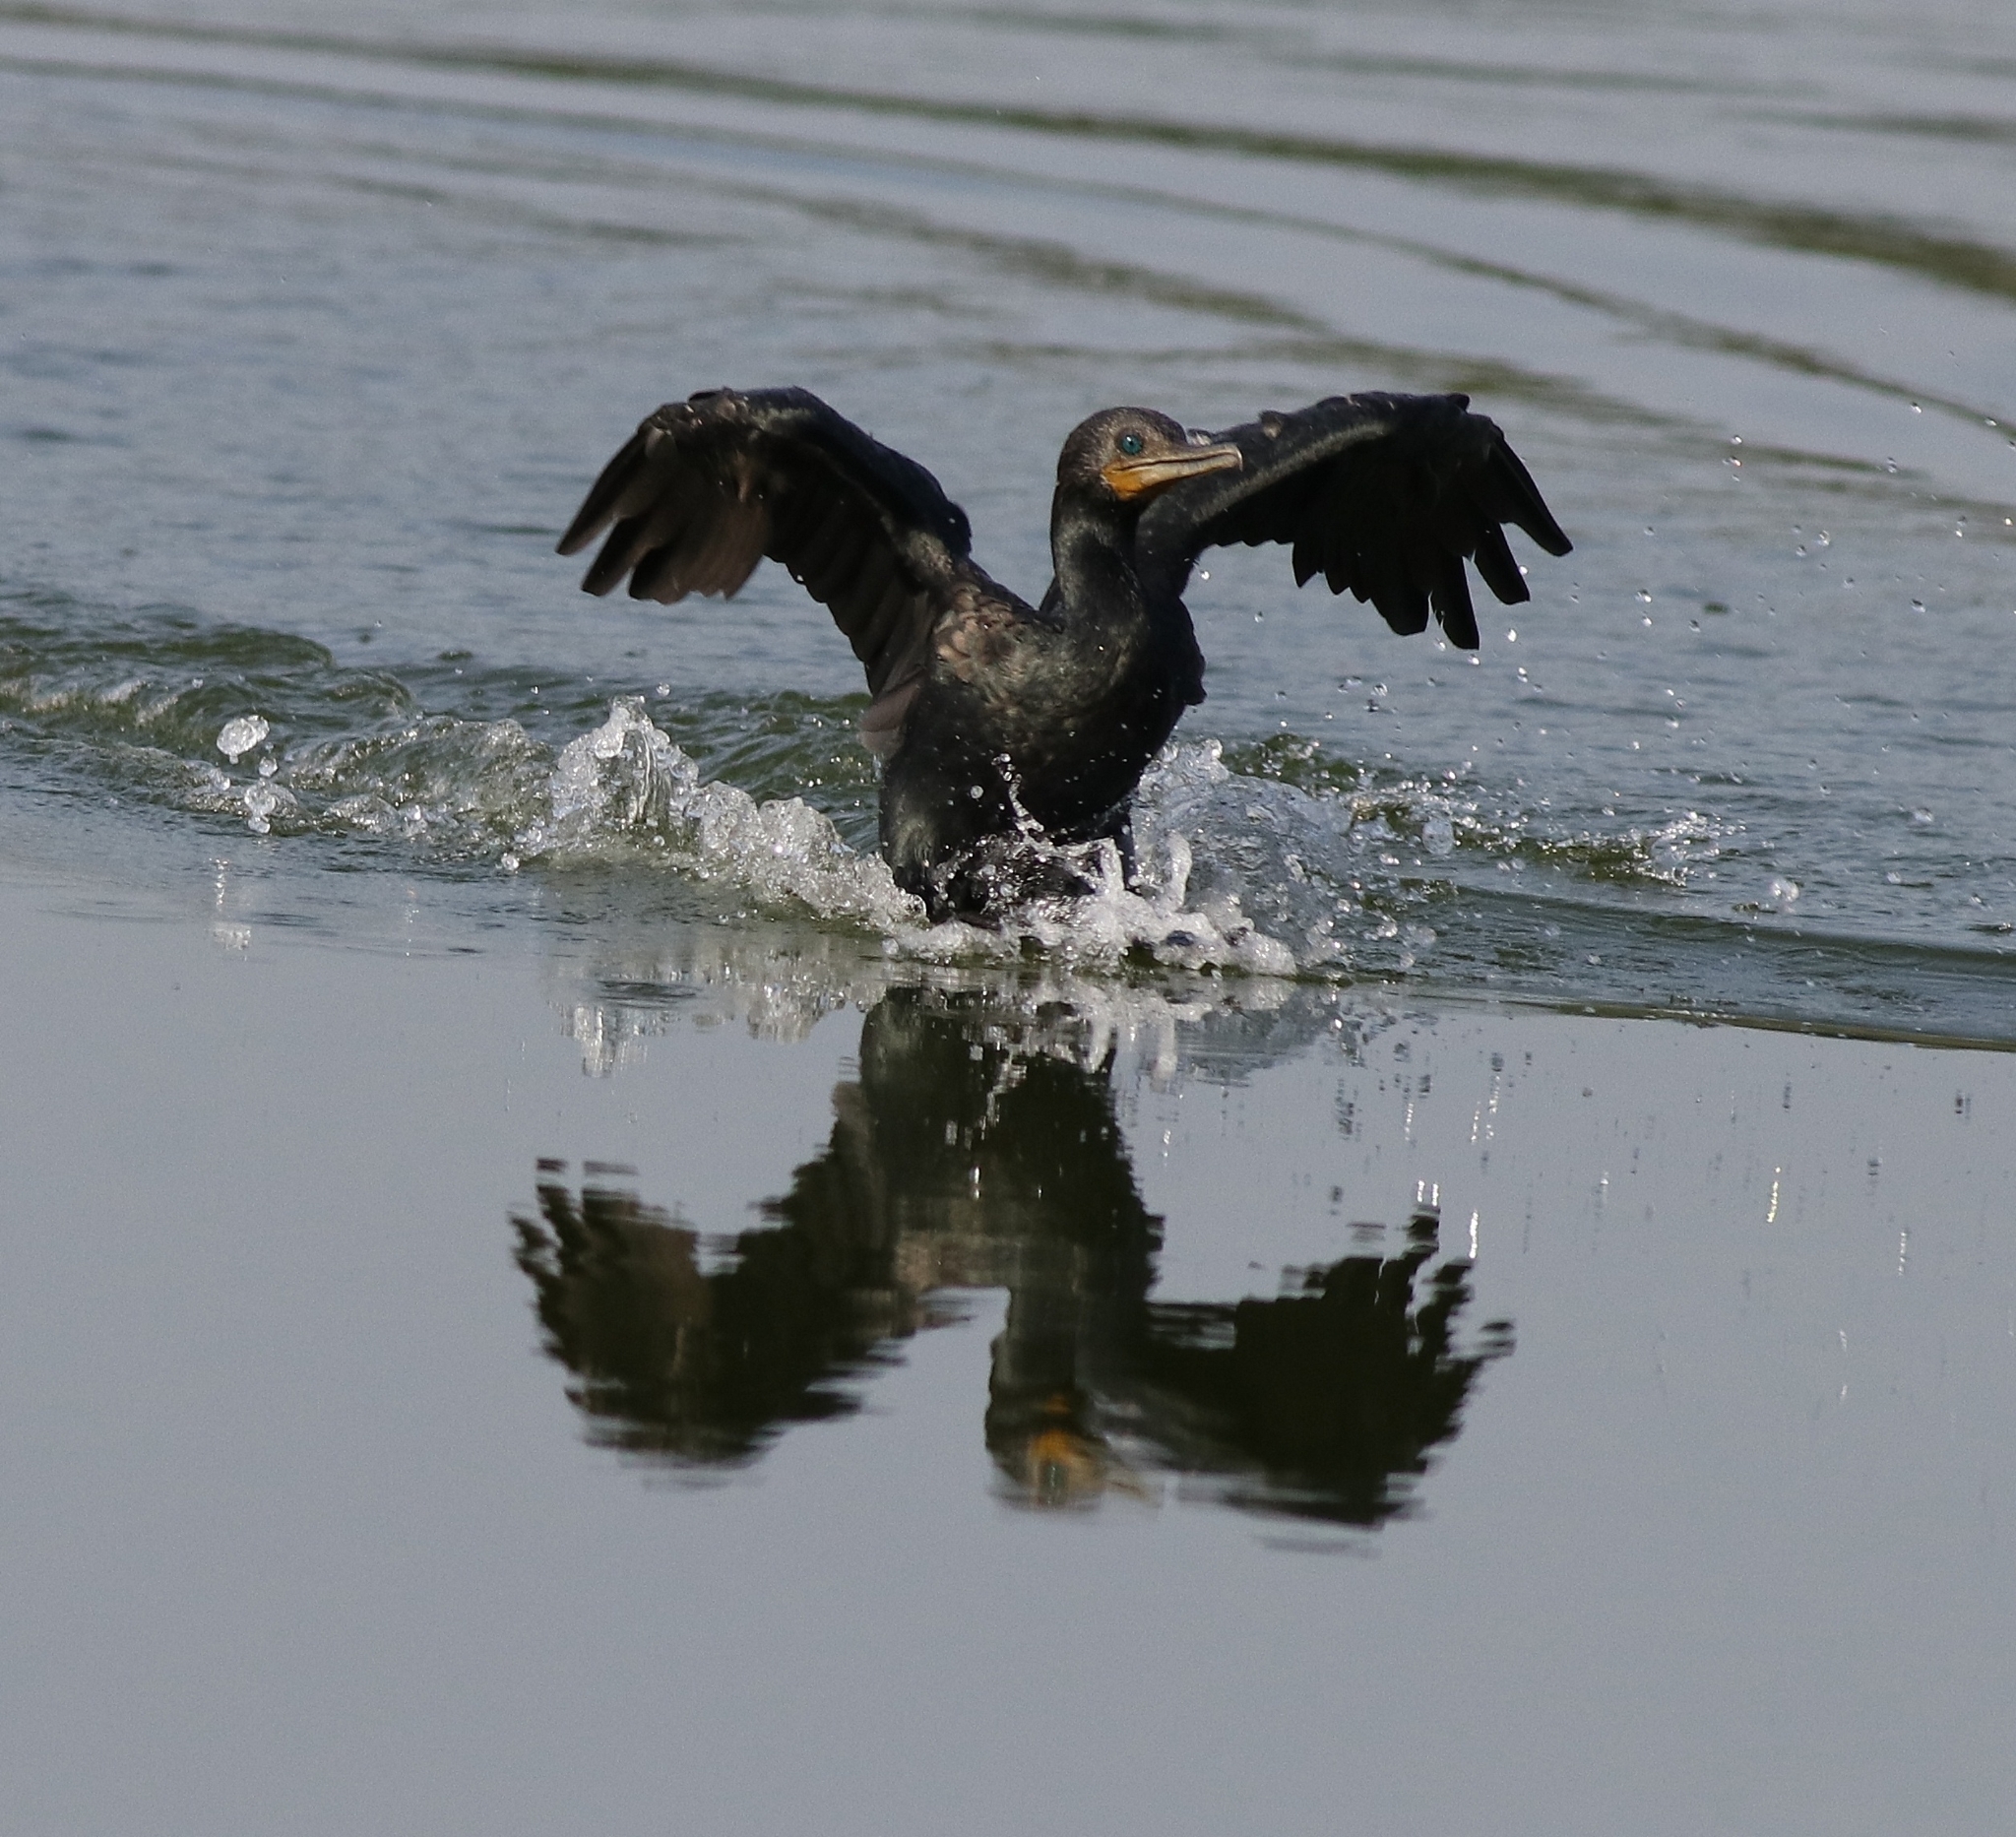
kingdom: Animalia
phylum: Chordata
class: Aves
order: Suliformes
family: Phalacrocoracidae
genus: Phalacrocorax
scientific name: Phalacrocorax fuscicollis
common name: Indian cormorant
